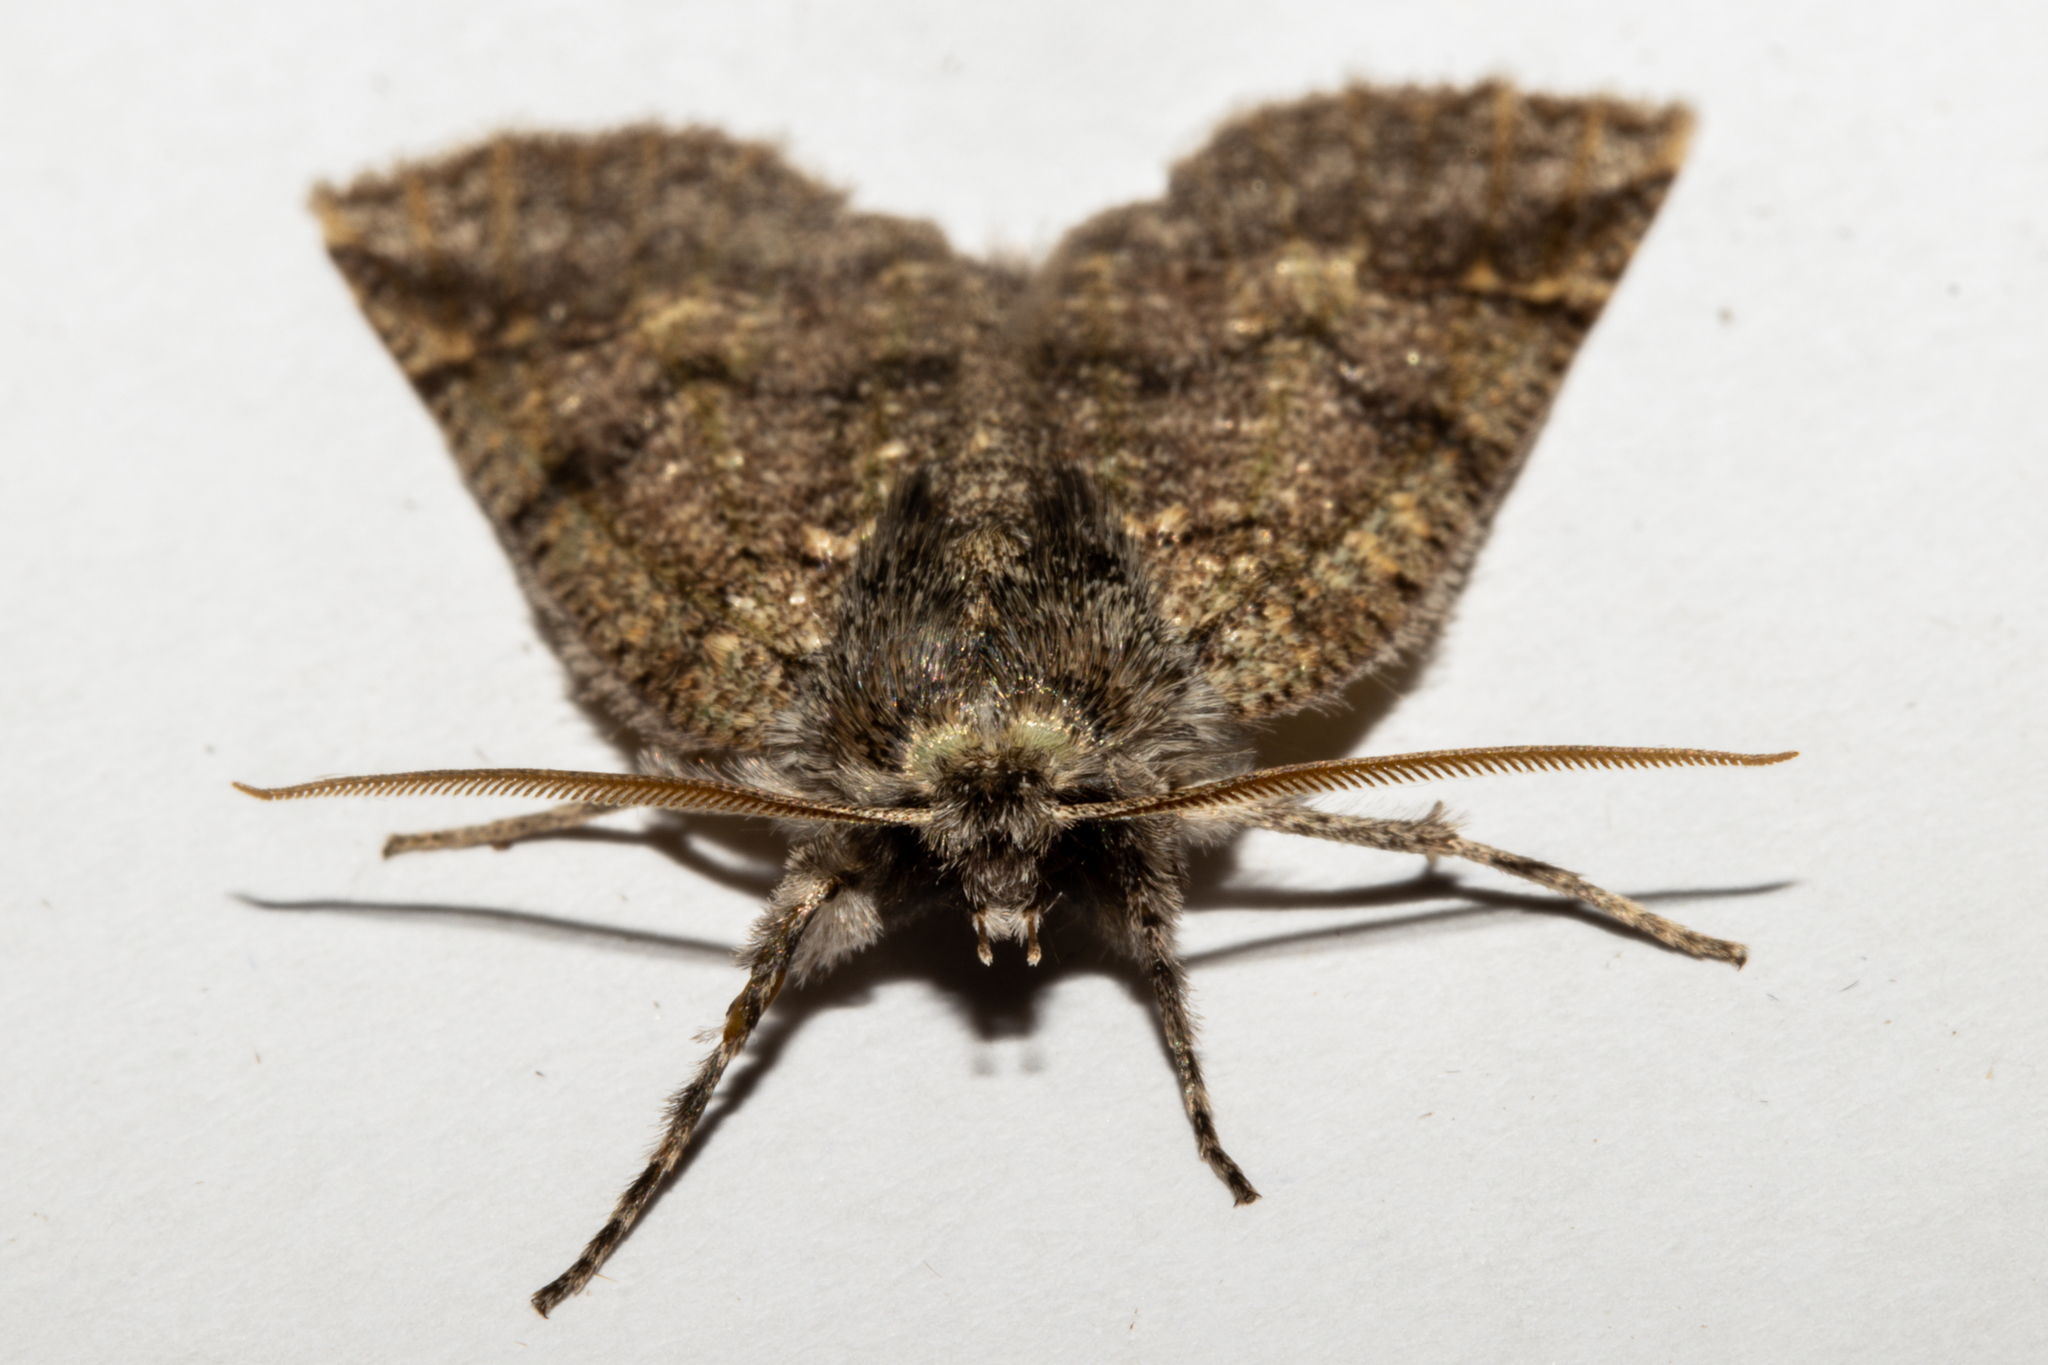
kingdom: Animalia
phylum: Arthropoda
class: Insecta
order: Lepidoptera
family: Geometridae
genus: Declana
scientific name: Declana floccosa
